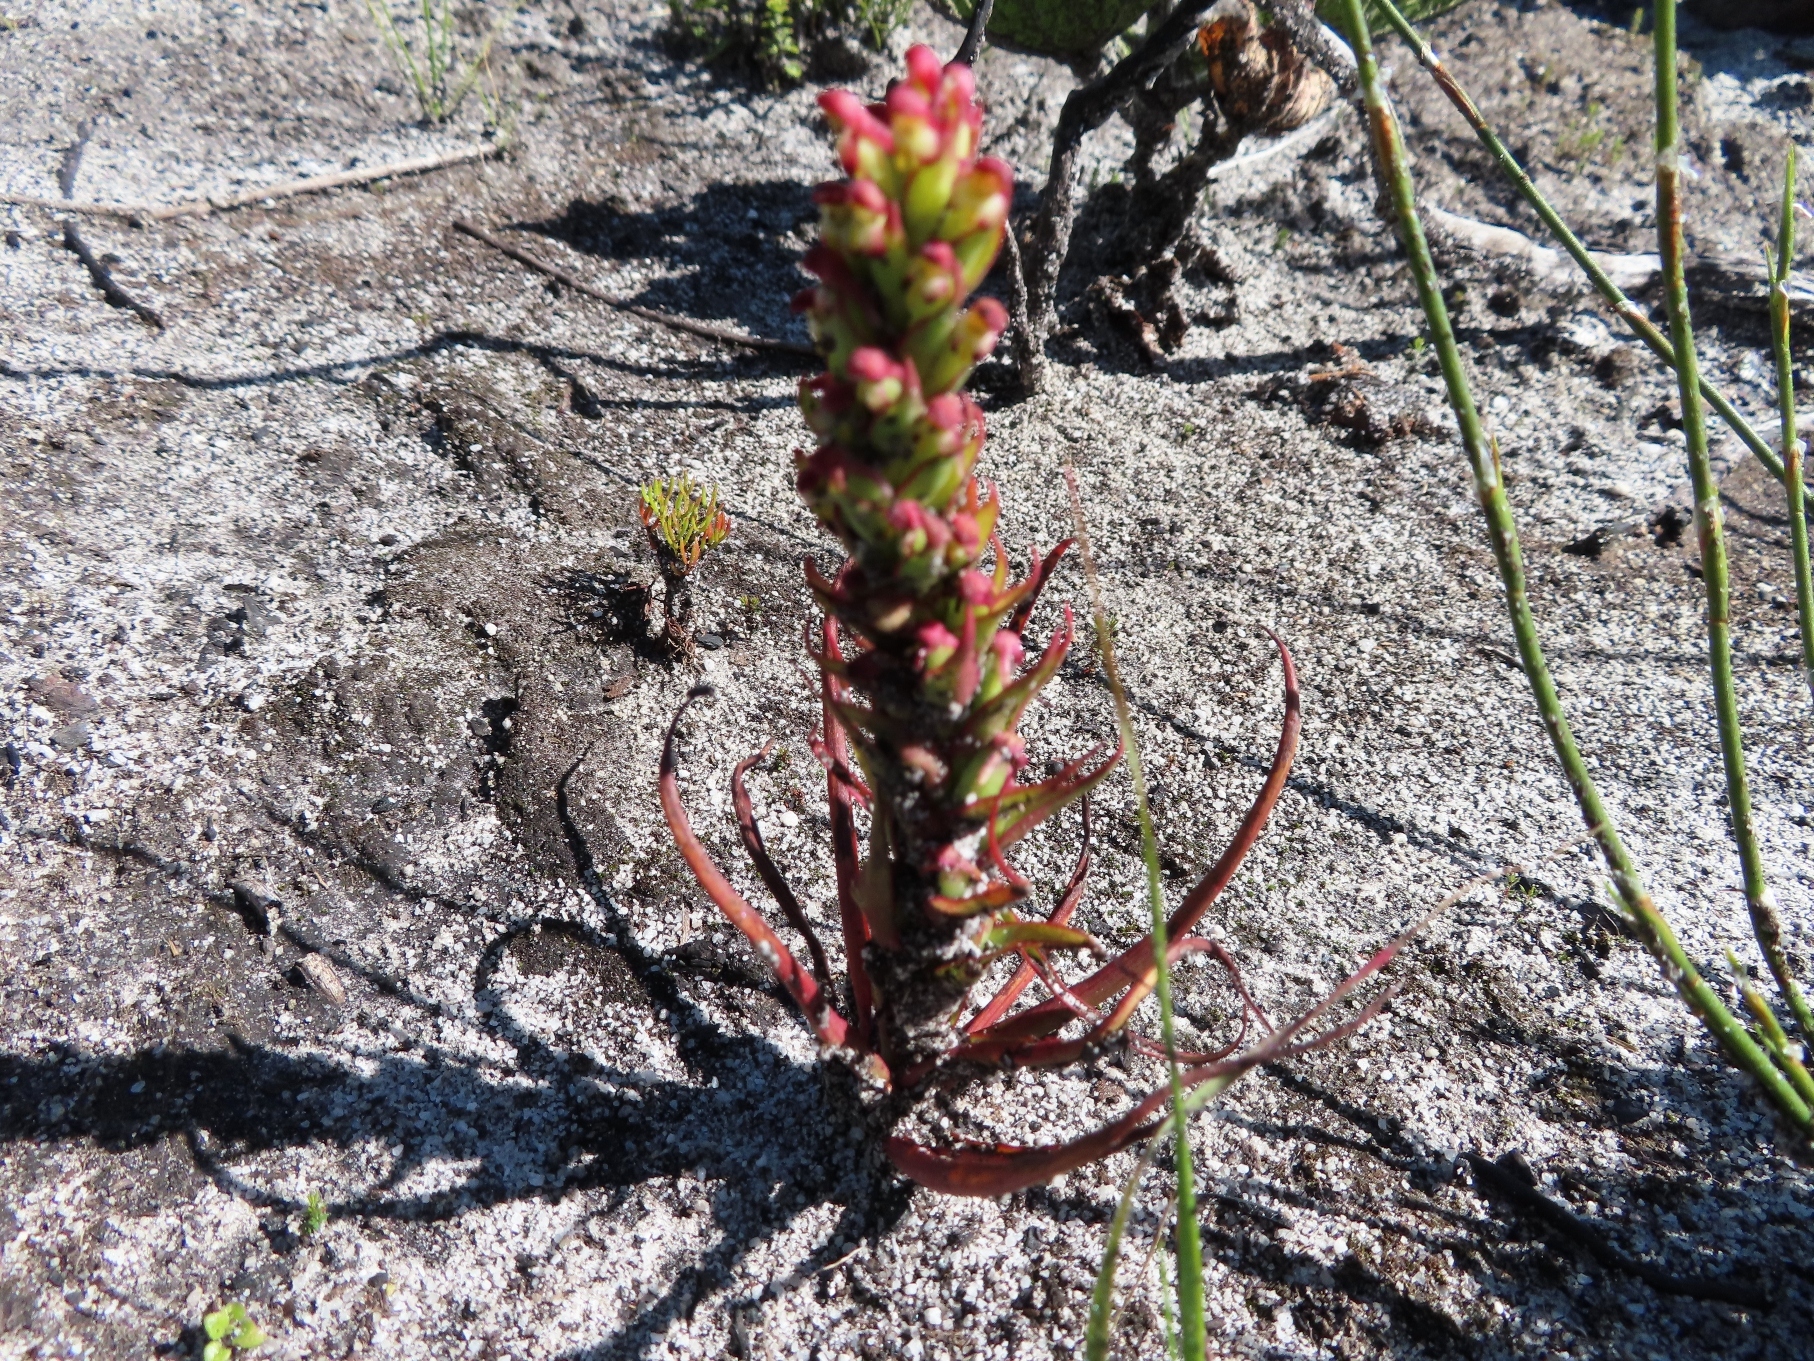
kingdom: Plantae
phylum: Tracheophyta
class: Liliopsida
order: Asparagales
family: Orchidaceae
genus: Disa
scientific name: Disa bracteata
